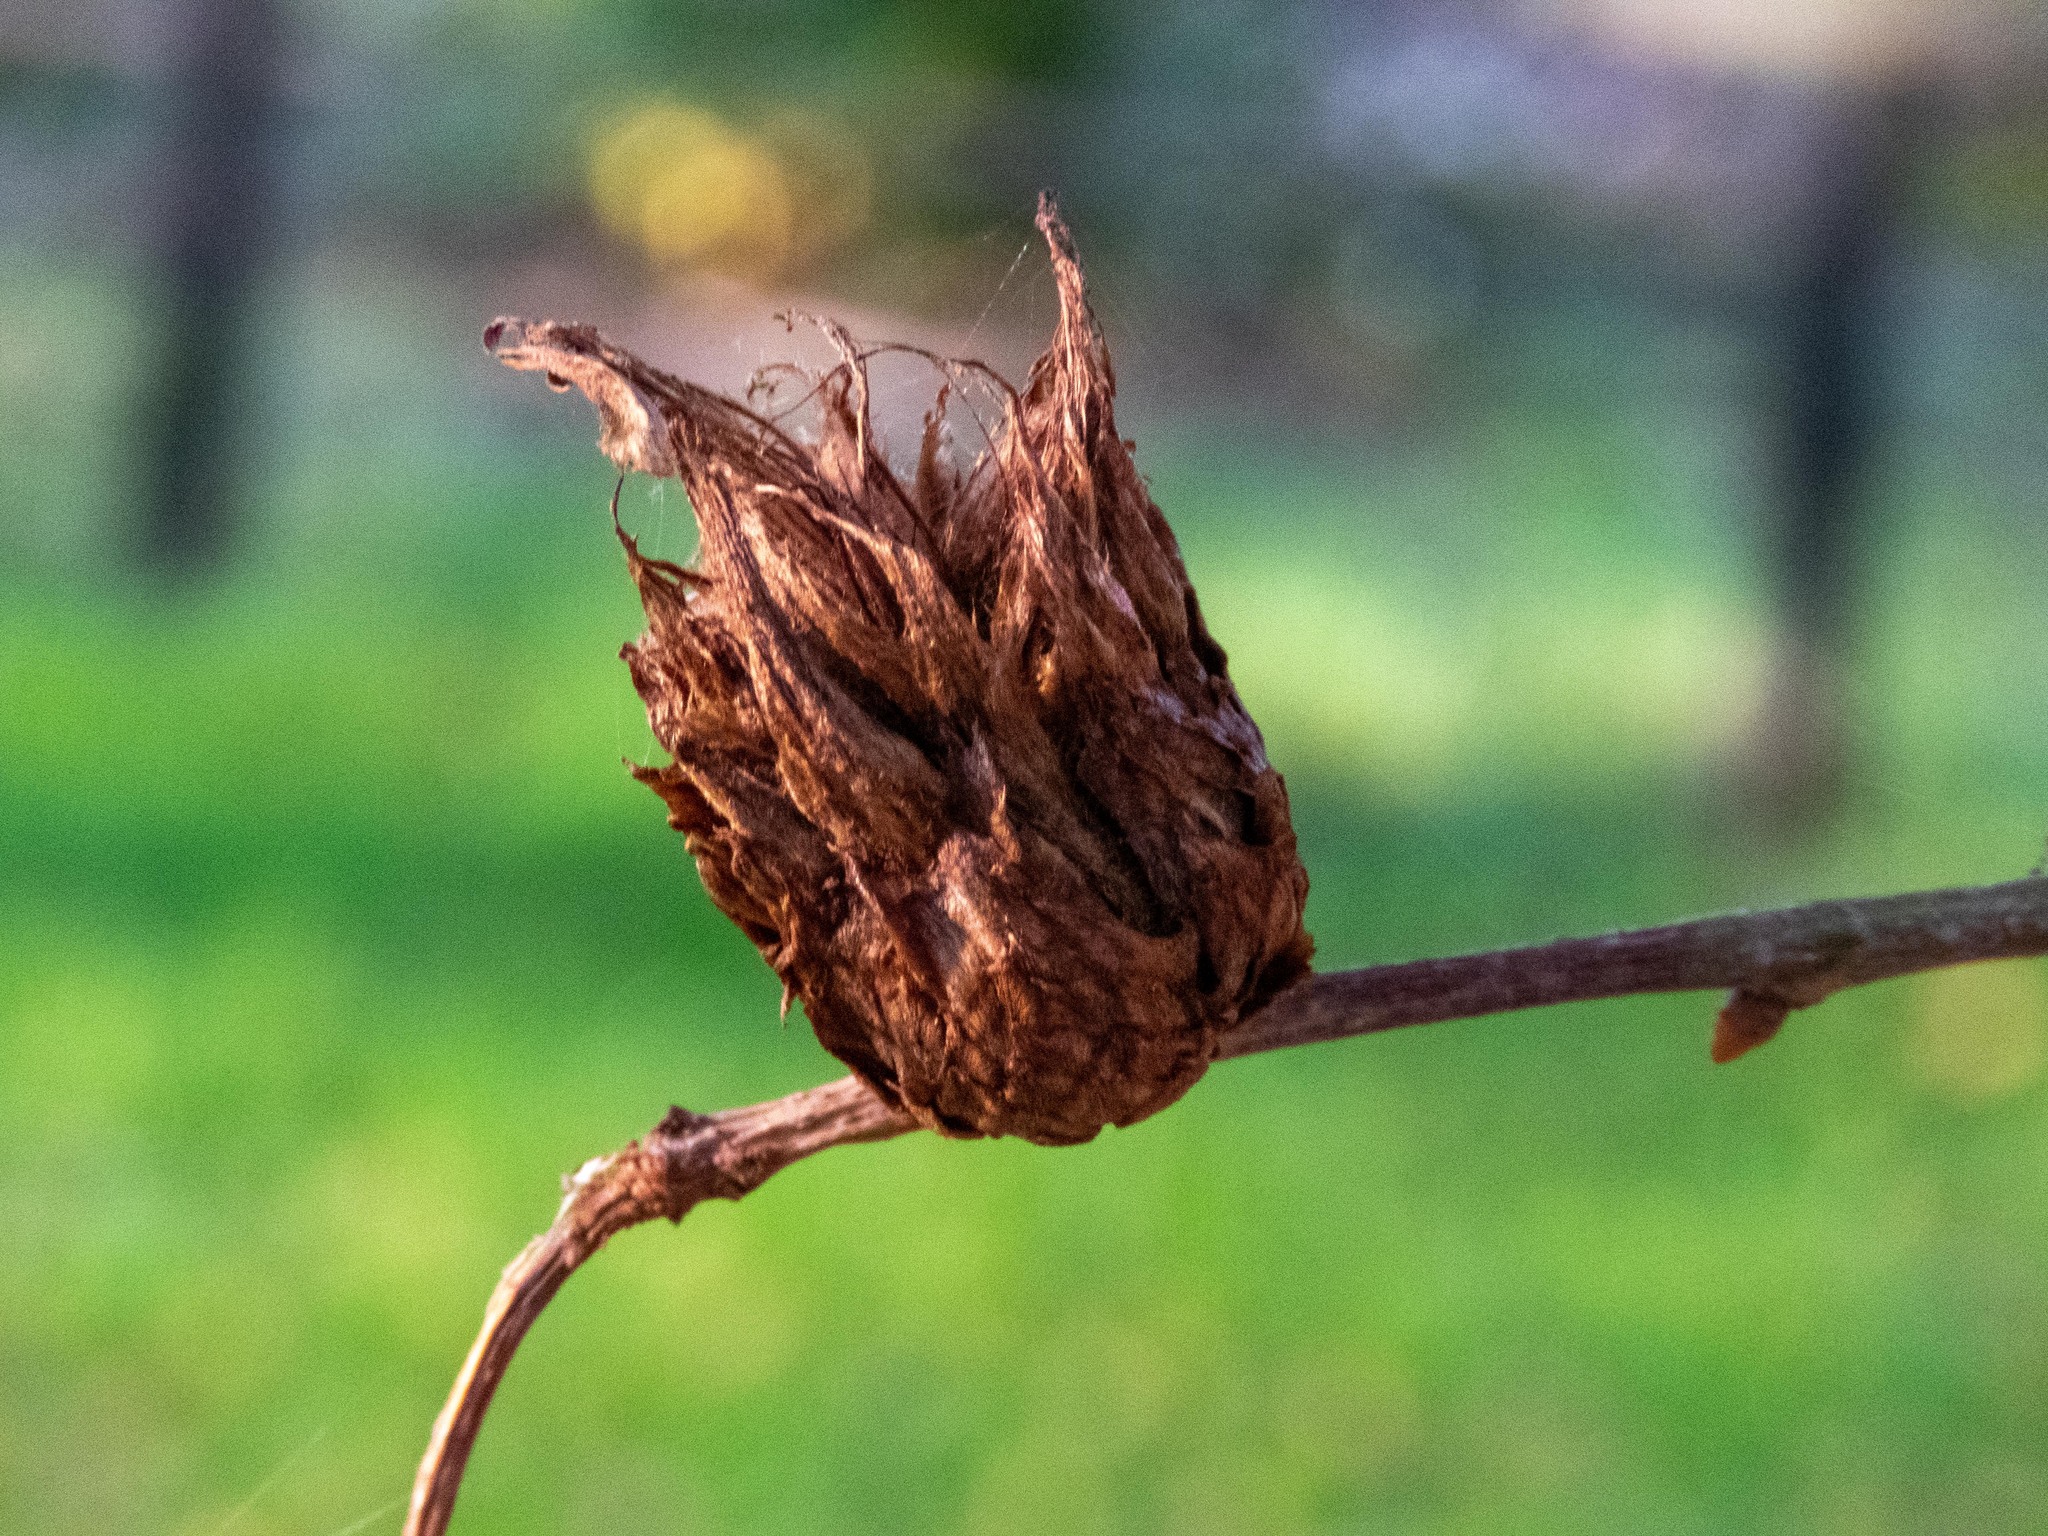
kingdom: Animalia
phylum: Arthropoda
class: Insecta
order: Hymenoptera
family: Cynipidae
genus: Andricus
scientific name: Andricus foecundatrix
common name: Artichoke gall
